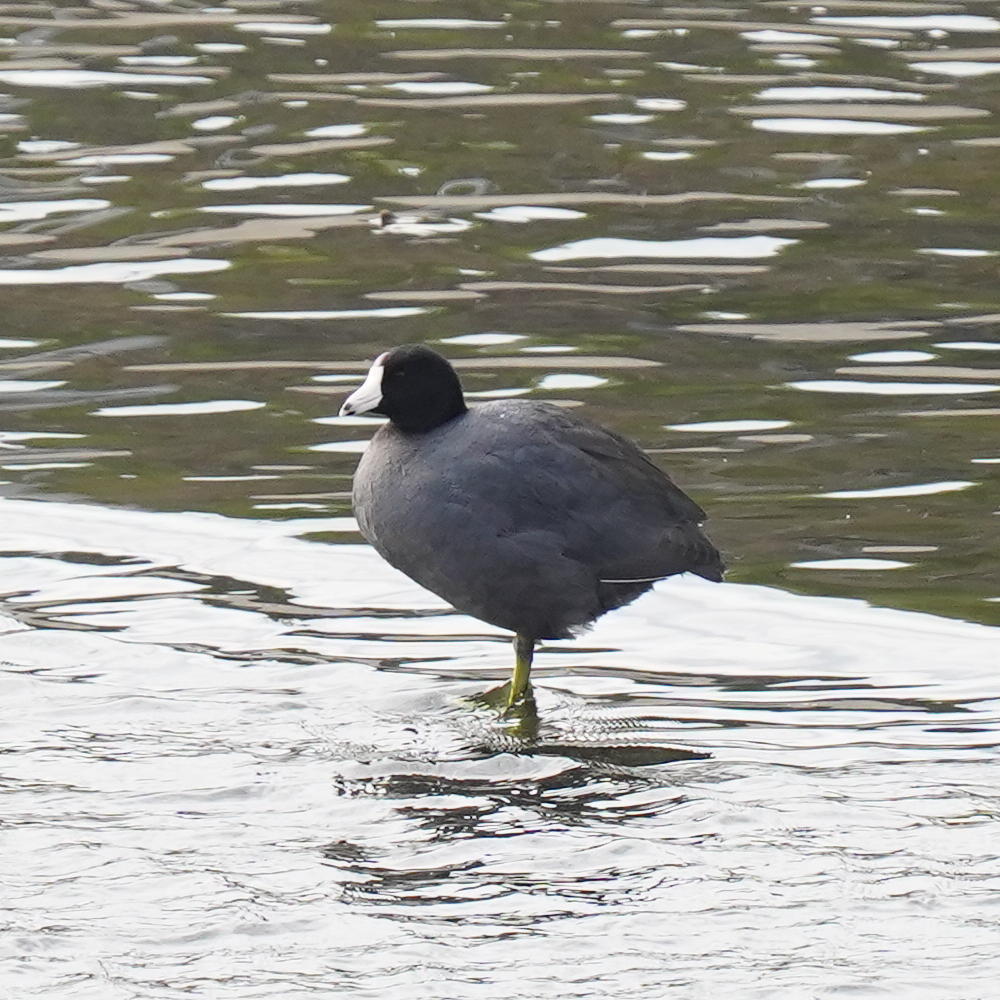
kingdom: Animalia
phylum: Chordata
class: Aves
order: Gruiformes
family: Rallidae
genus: Fulica
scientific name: Fulica americana
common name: American coot
